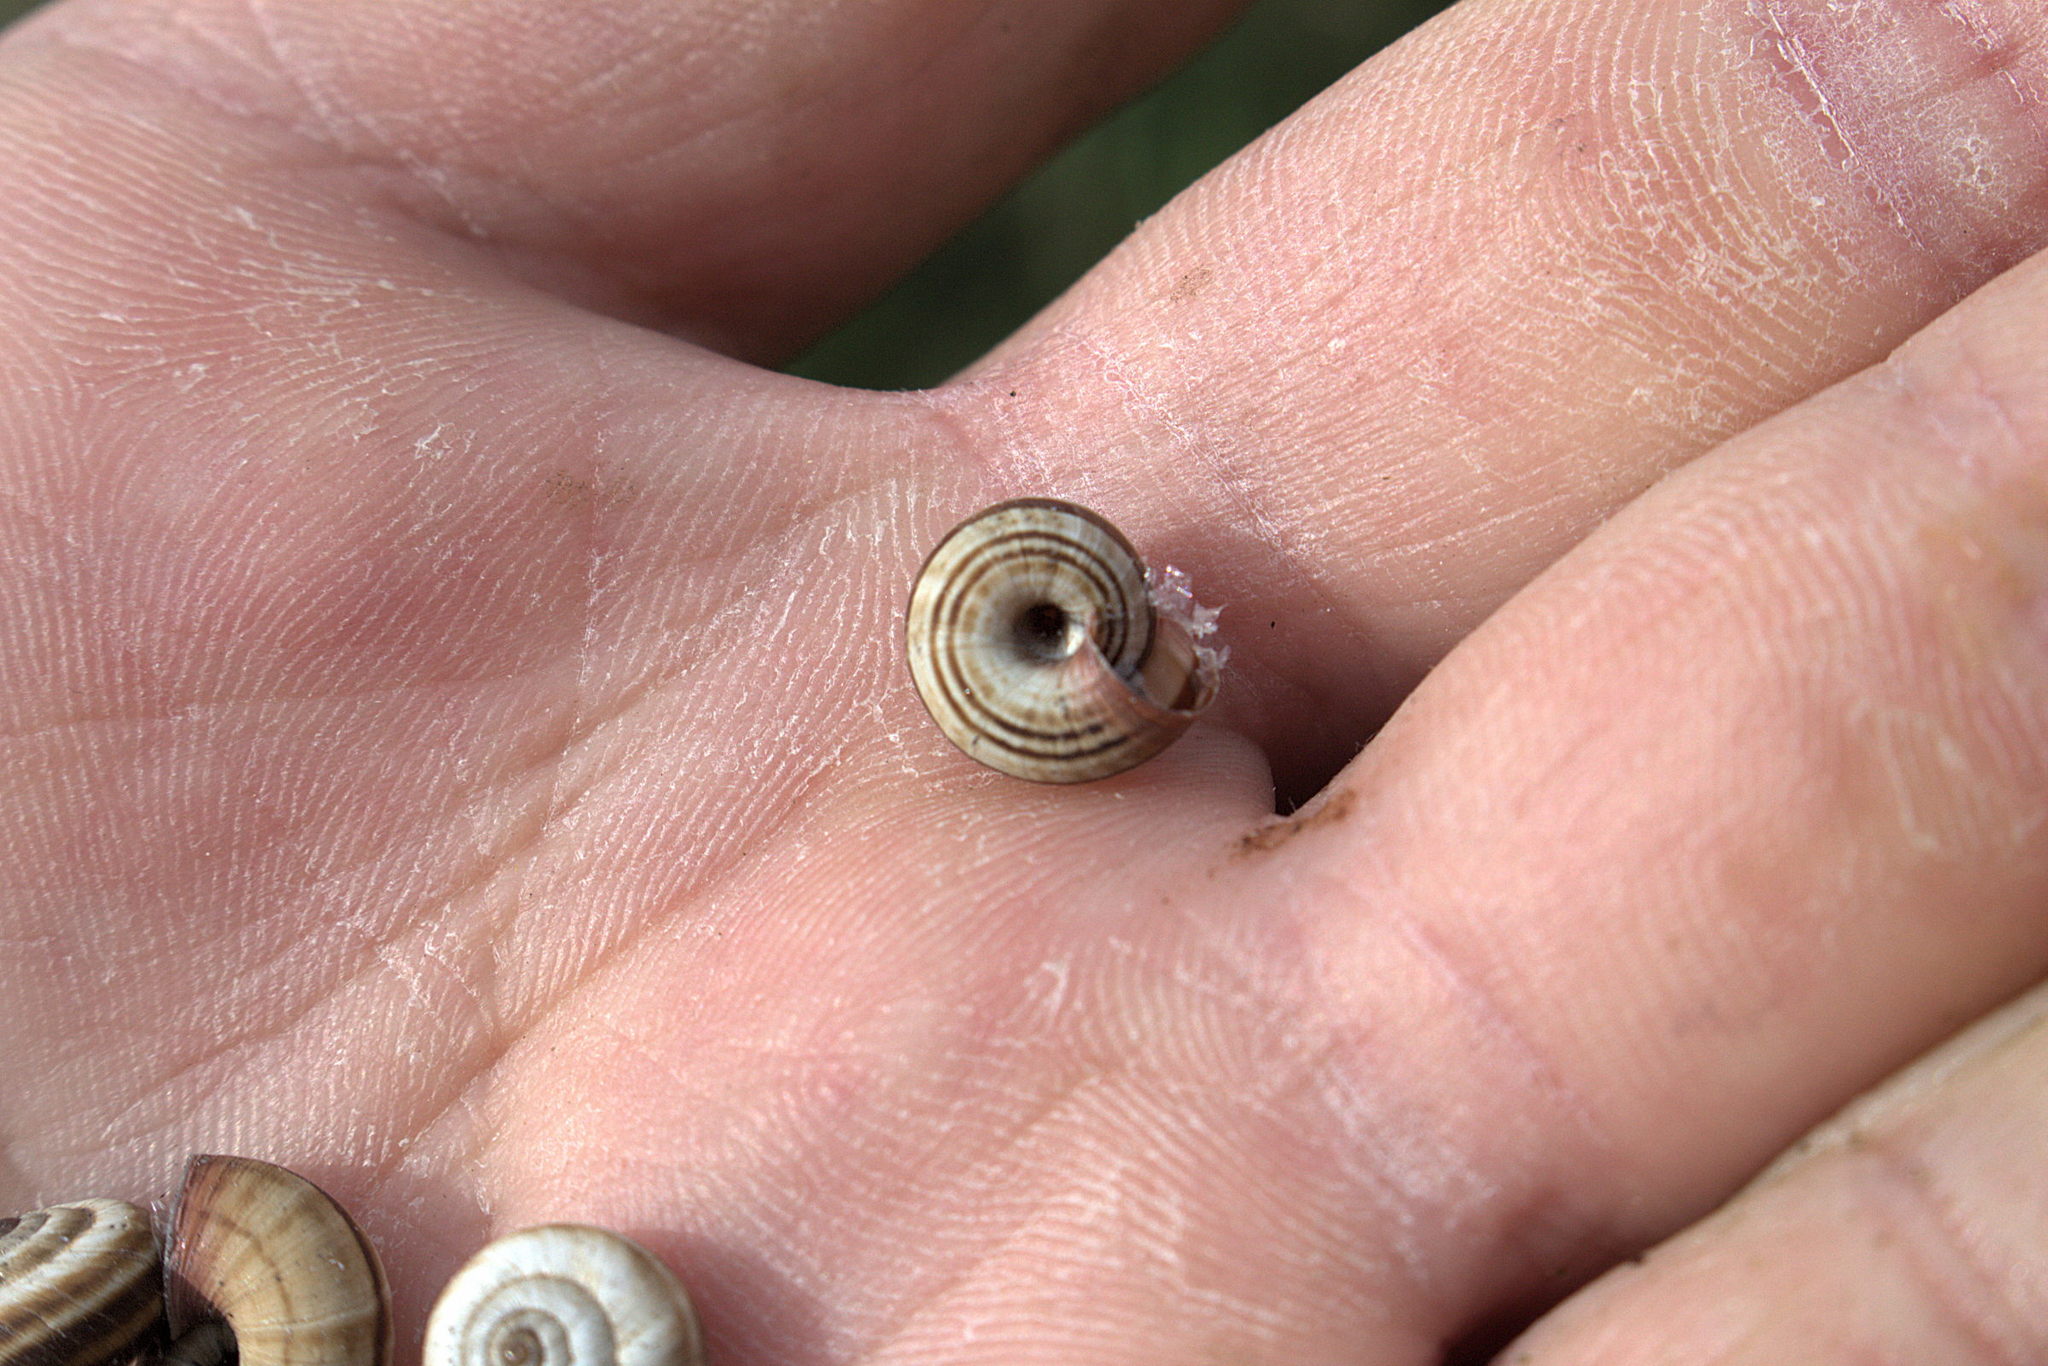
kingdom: Animalia
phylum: Mollusca
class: Gastropoda
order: Stylommatophora
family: Geomitridae
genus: Cernuella
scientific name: Cernuella neglecta
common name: Neglected dune snail
